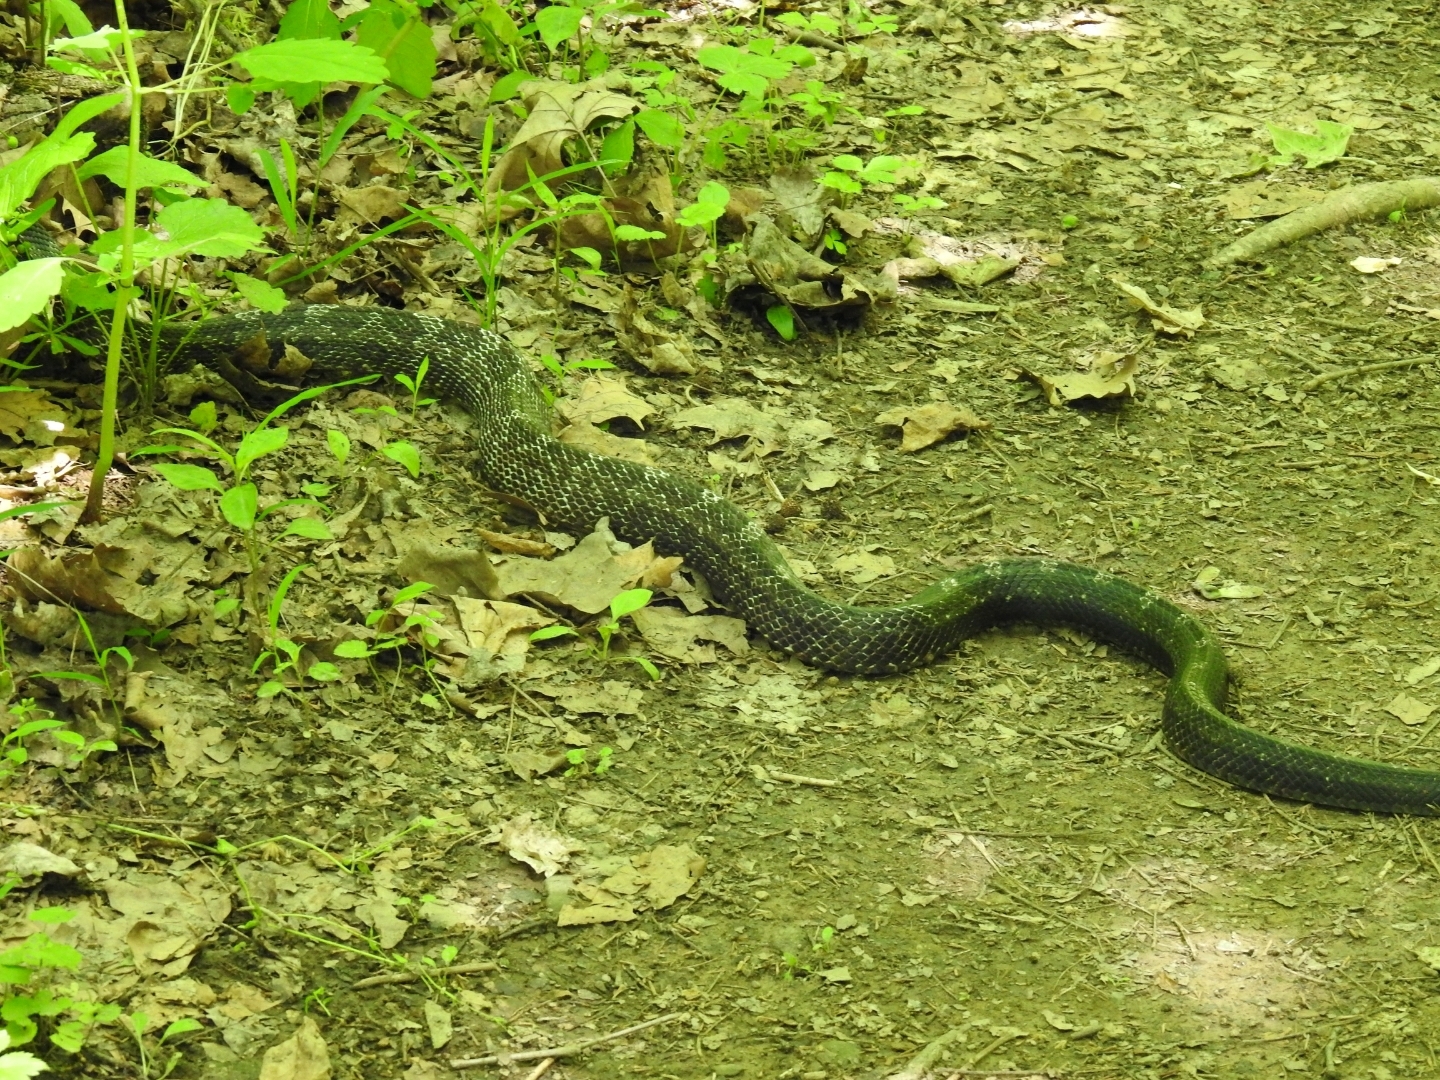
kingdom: Animalia
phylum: Chordata
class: Squamata
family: Colubridae
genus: Pantherophis
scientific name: Pantherophis spiloides
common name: Gray rat snake
